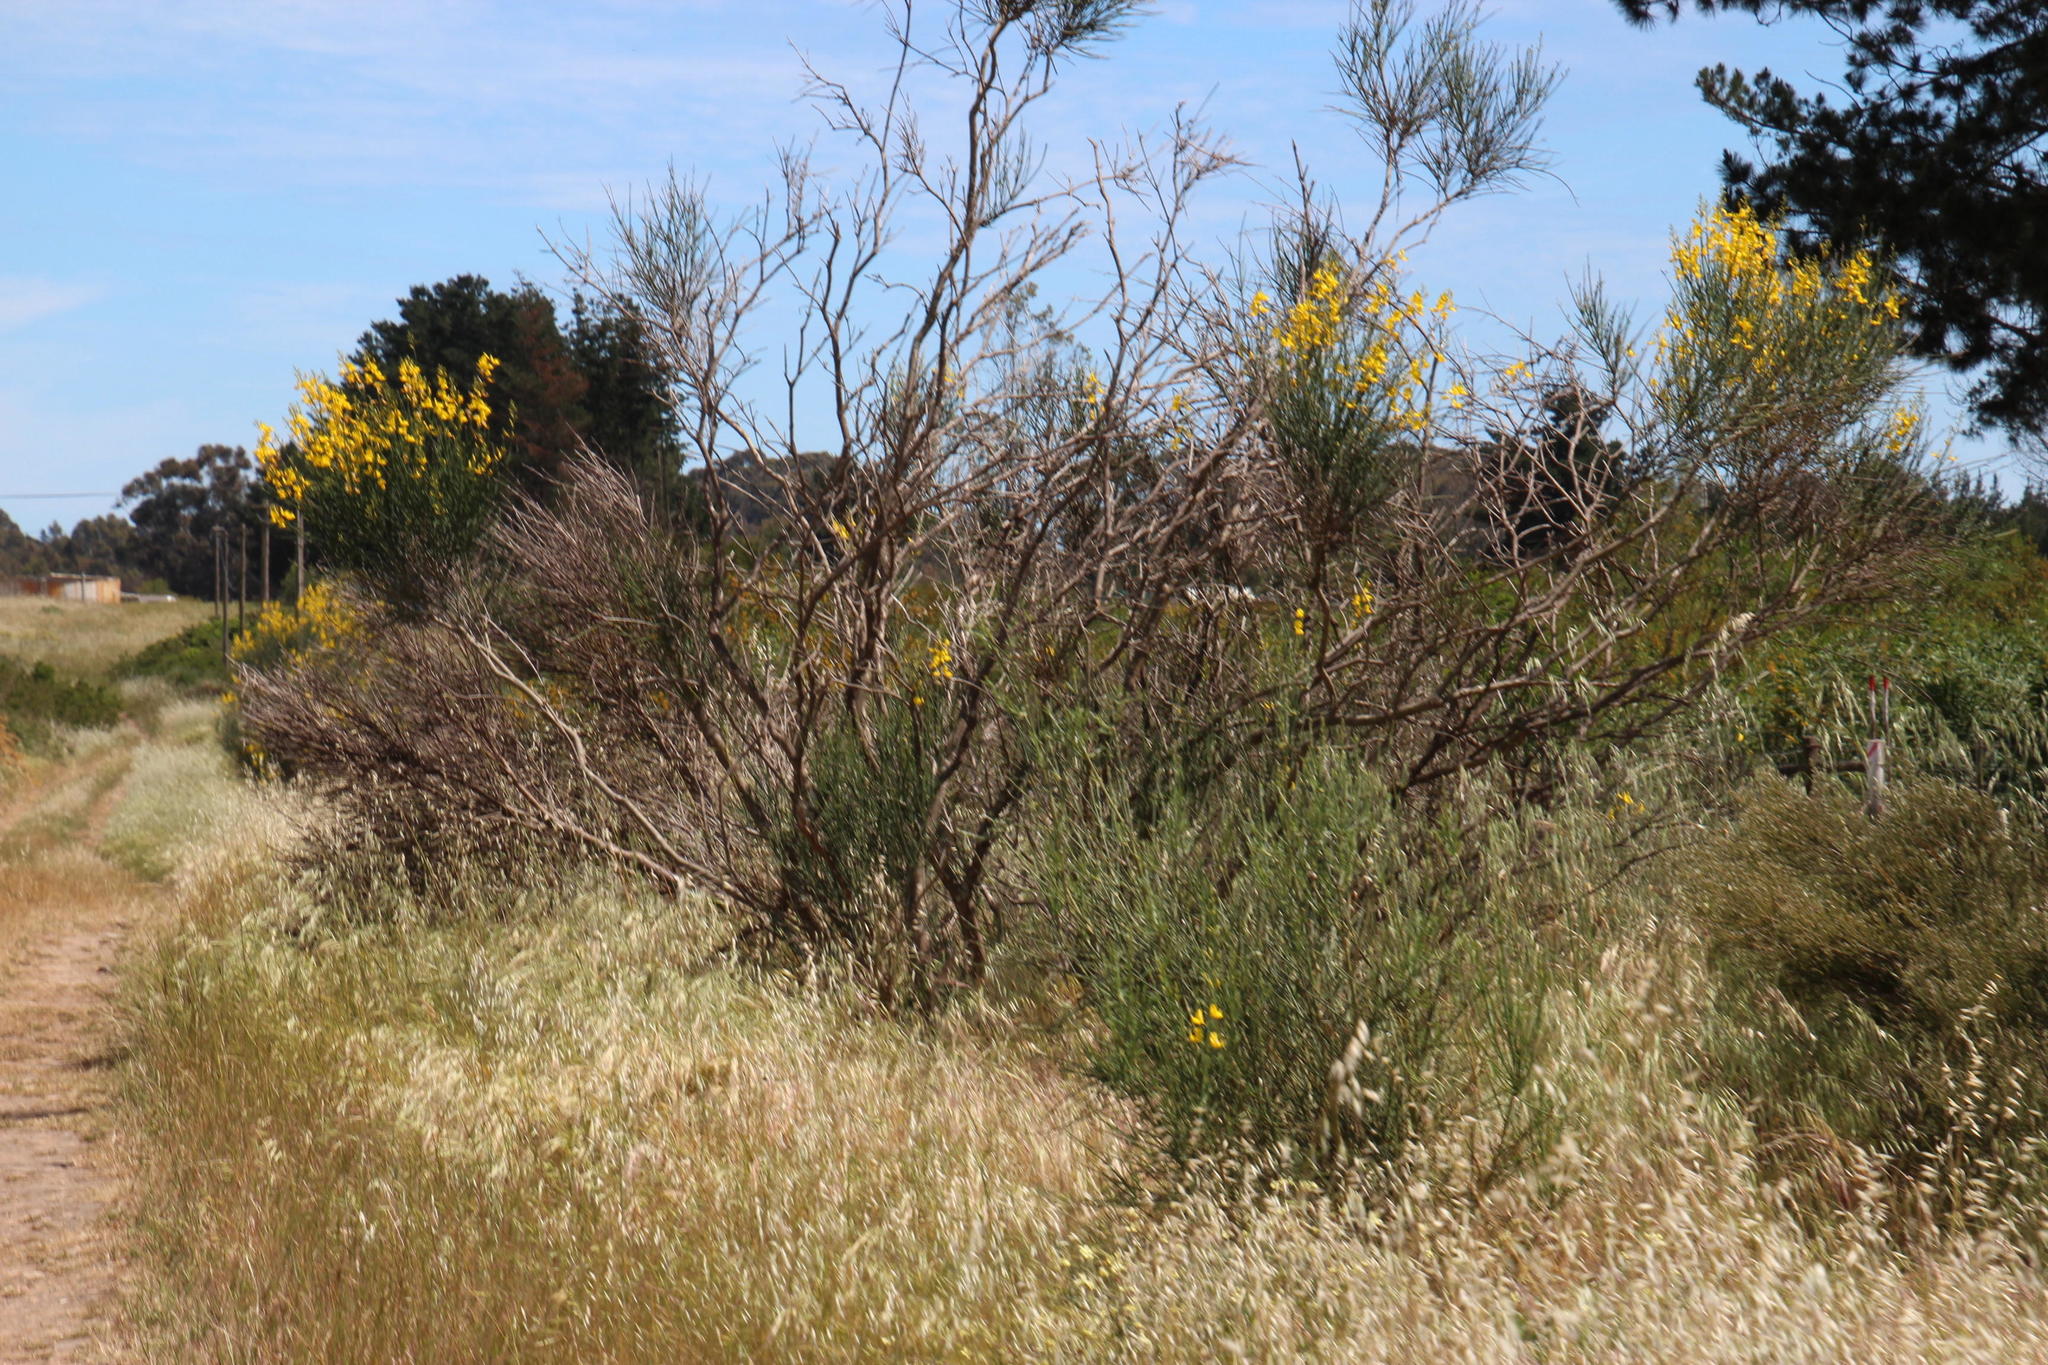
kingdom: Plantae
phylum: Tracheophyta
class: Magnoliopsida
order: Fabales
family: Fabaceae
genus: Spartium
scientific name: Spartium junceum
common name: Spanish broom
